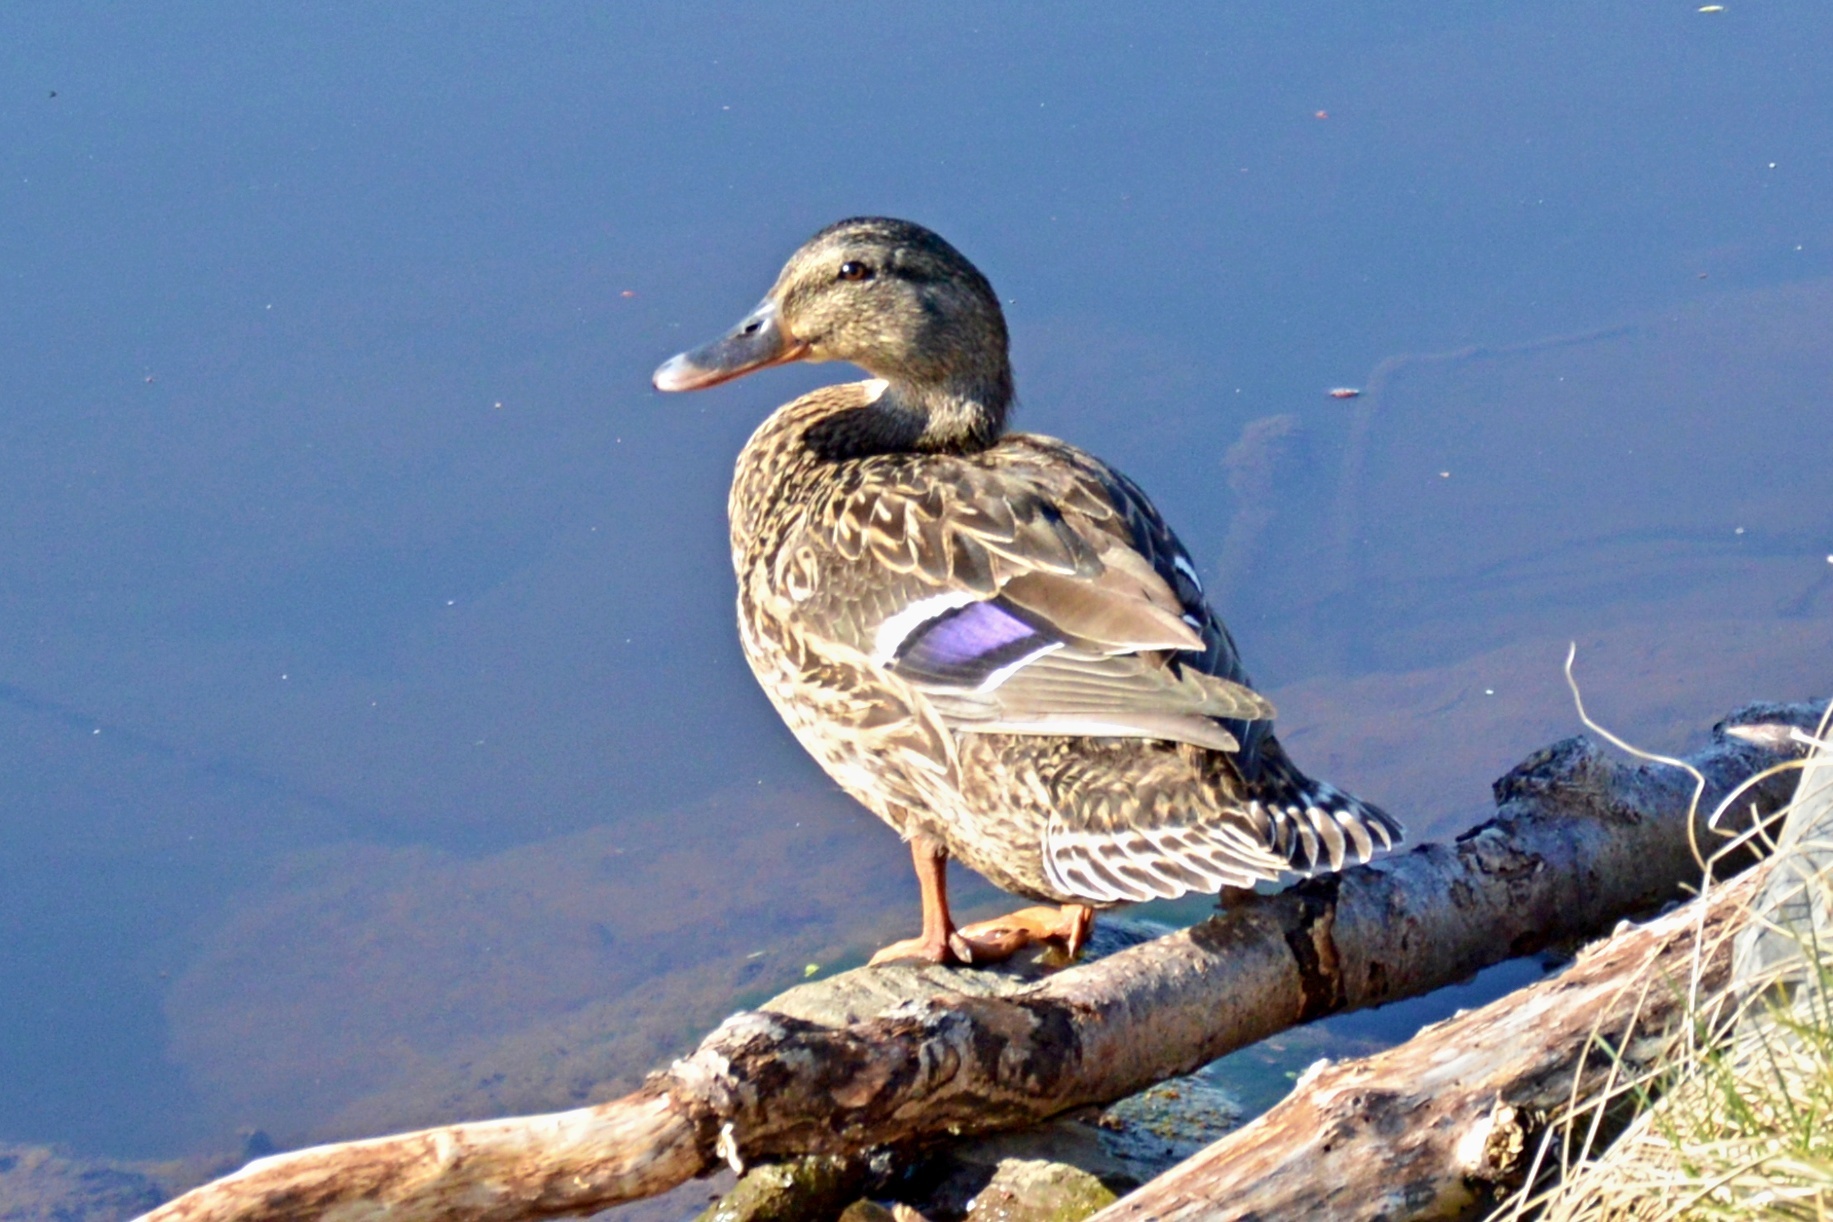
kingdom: Animalia
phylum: Chordata
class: Aves
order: Anseriformes
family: Anatidae
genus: Anas
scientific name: Anas platyrhynchos
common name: Mallard
